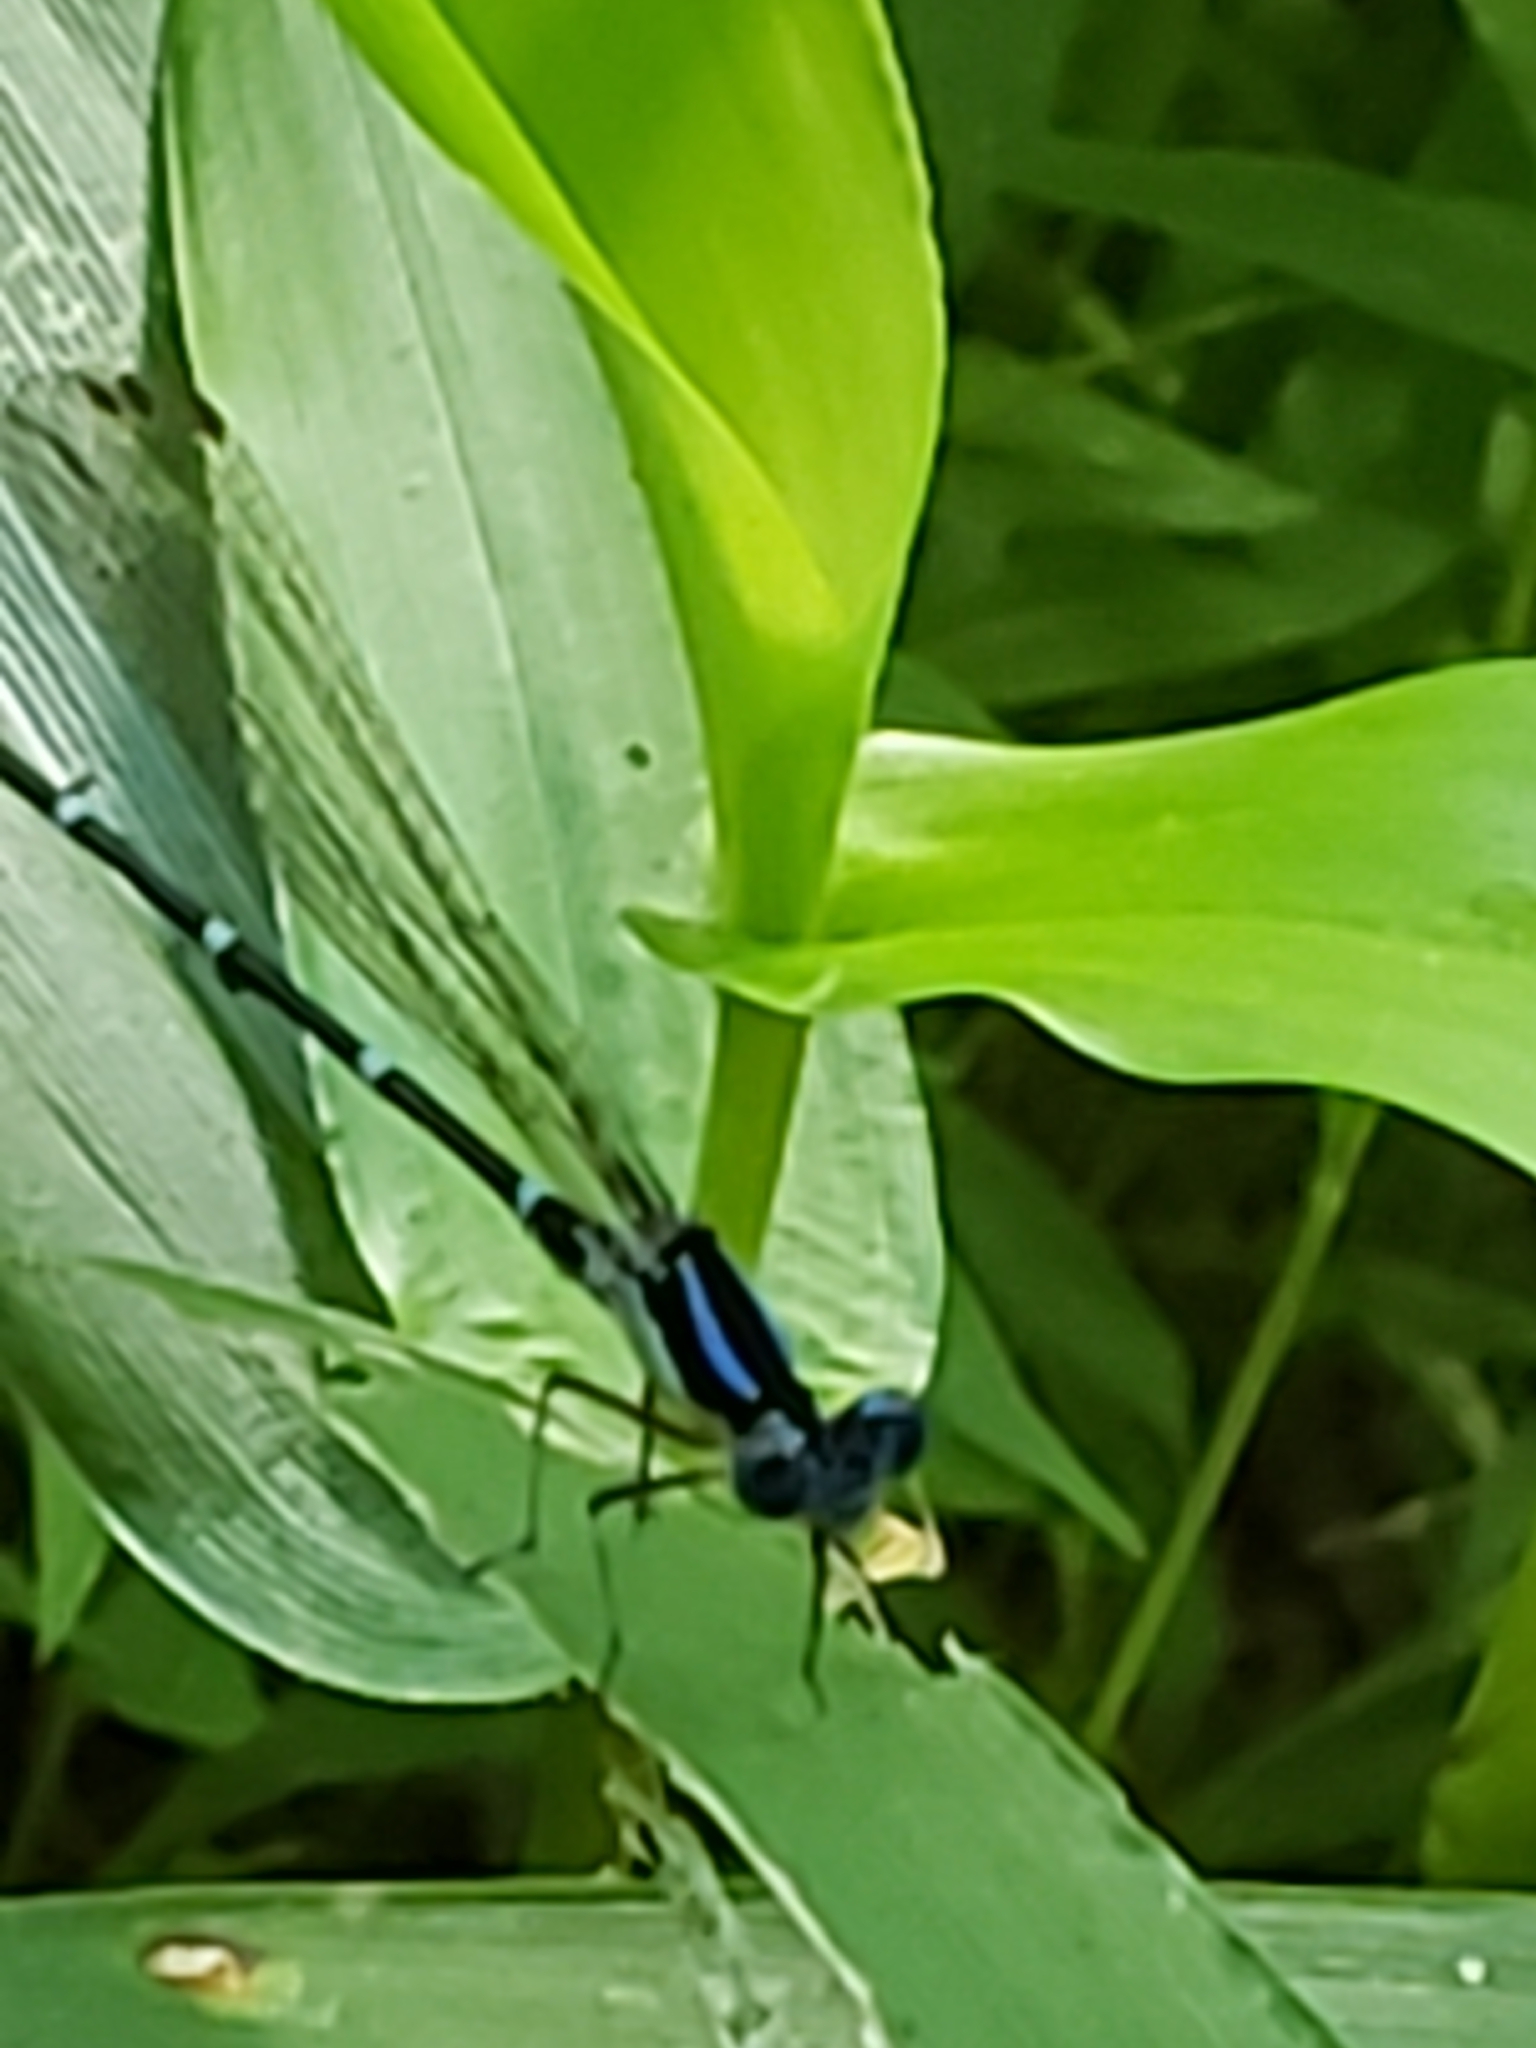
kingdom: Animalia
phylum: Arthropoda
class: Insecta
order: Odonata
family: Coenagrionidae
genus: Argia
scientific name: Argia sedula
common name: Blue-ringed dancer
